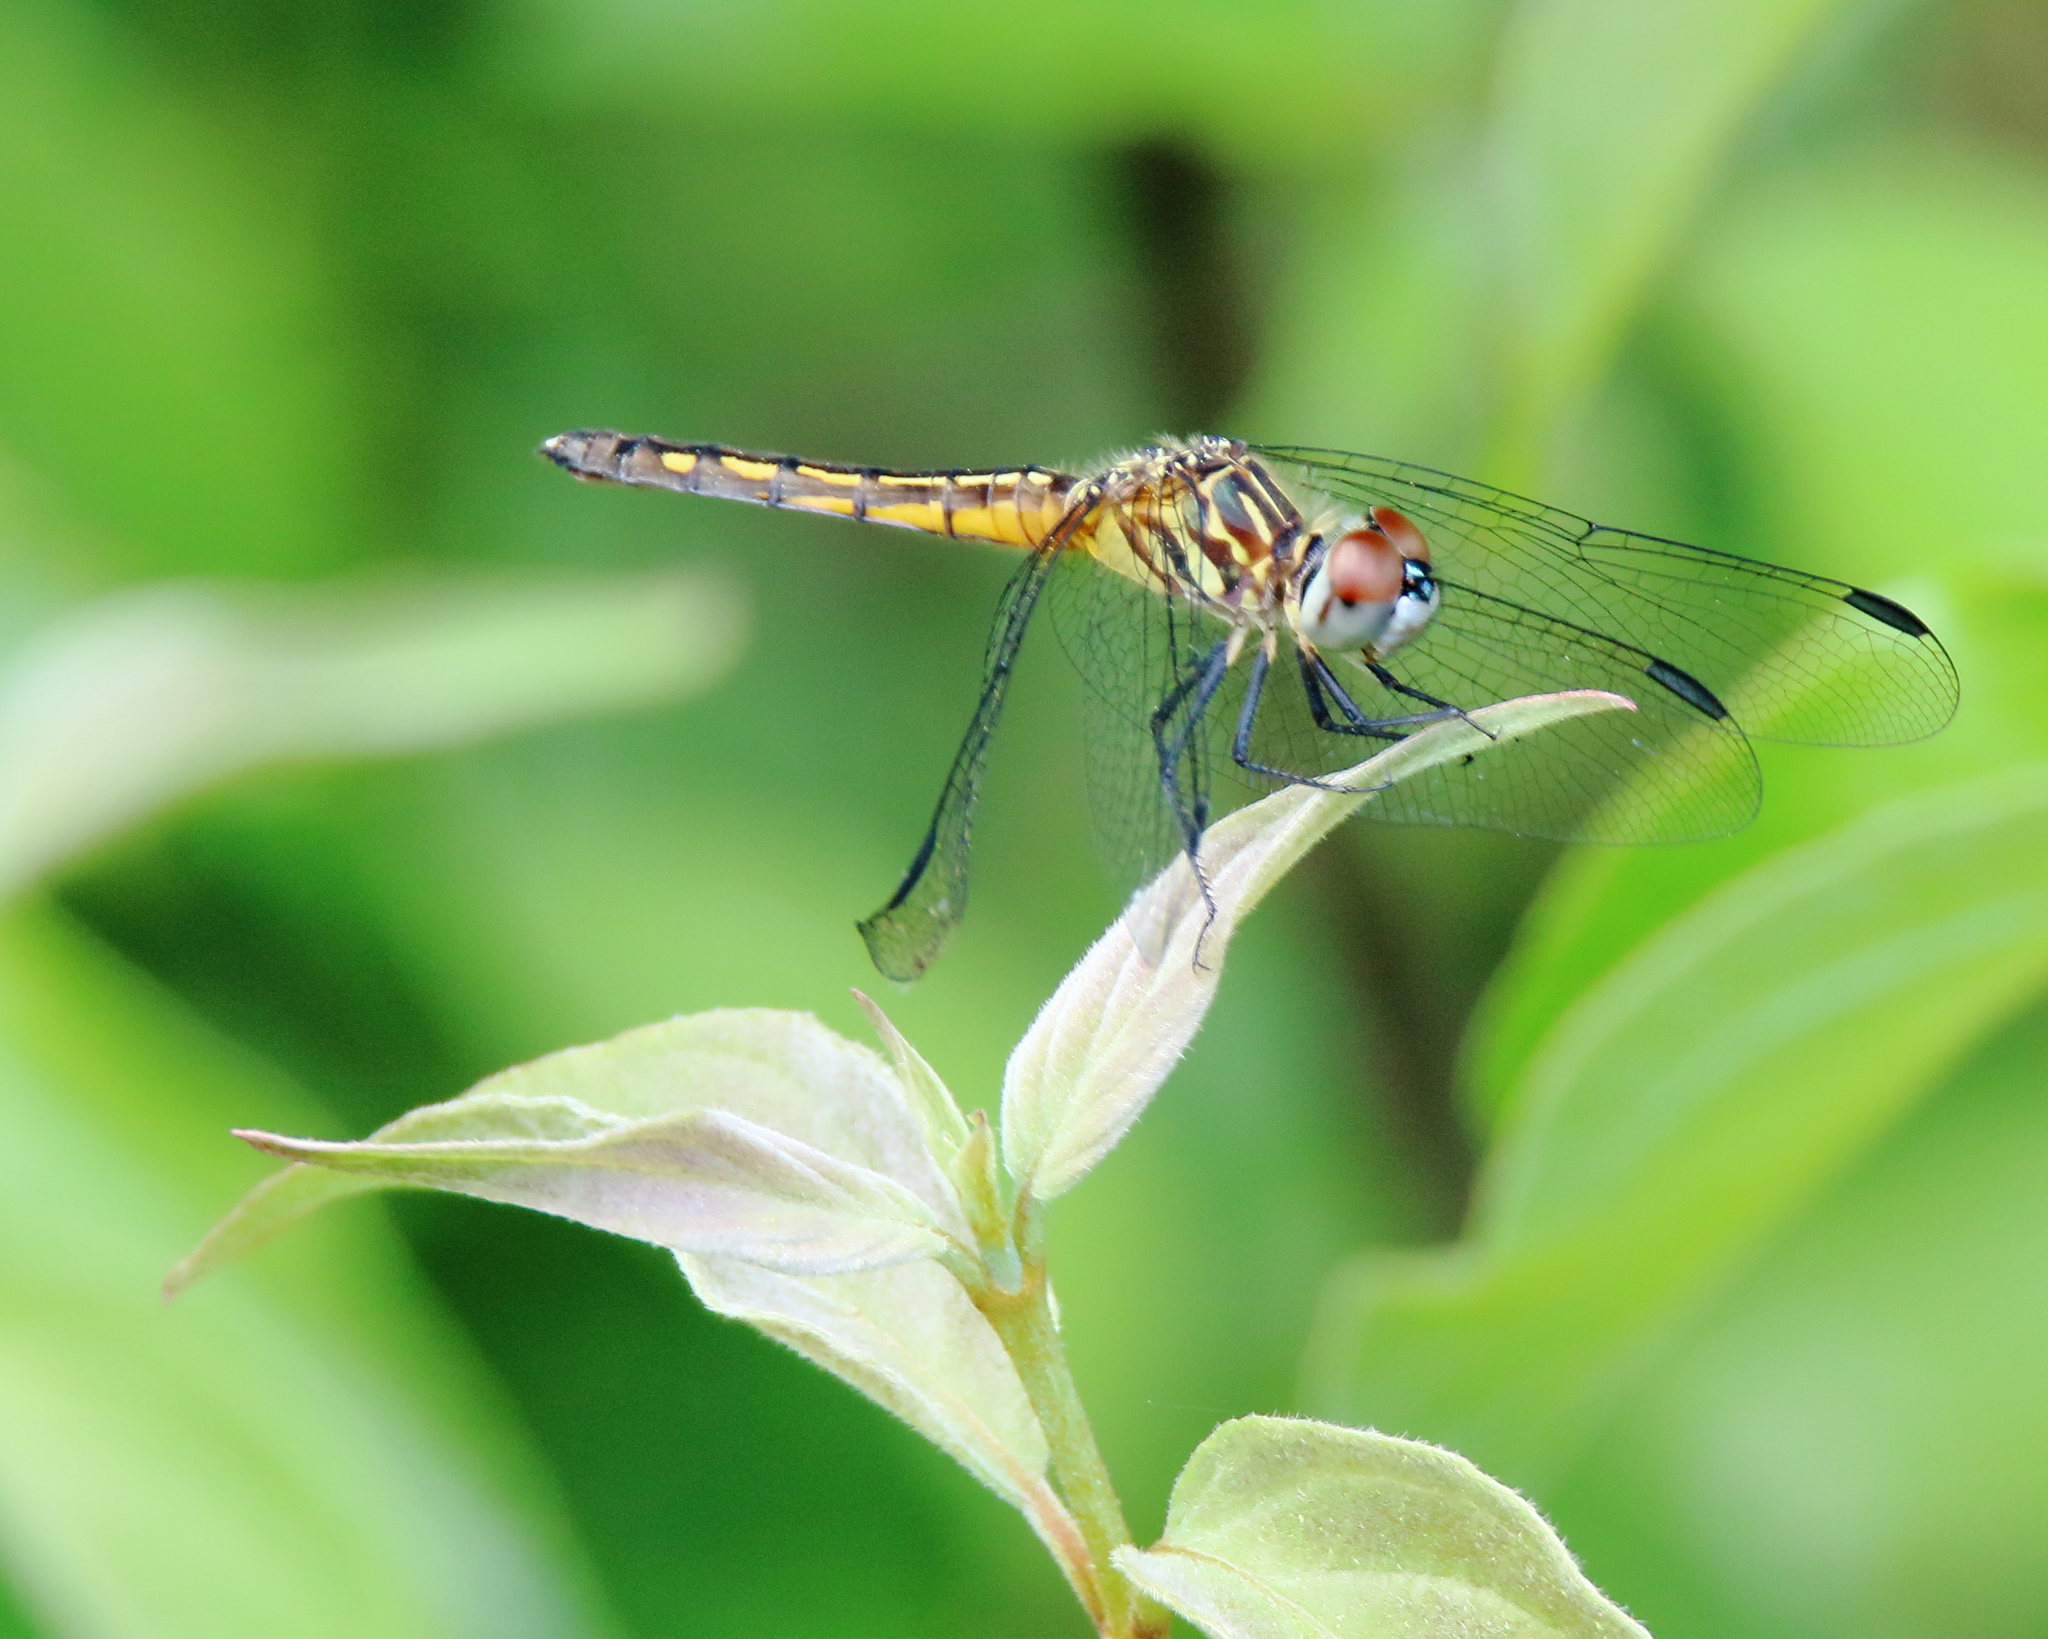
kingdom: Animalia
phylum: Arthropoda
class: Insecta
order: Odonata
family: Libellulidae
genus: Pachydiplax
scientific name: Pachydiplax longipennis
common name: Blue dasher
